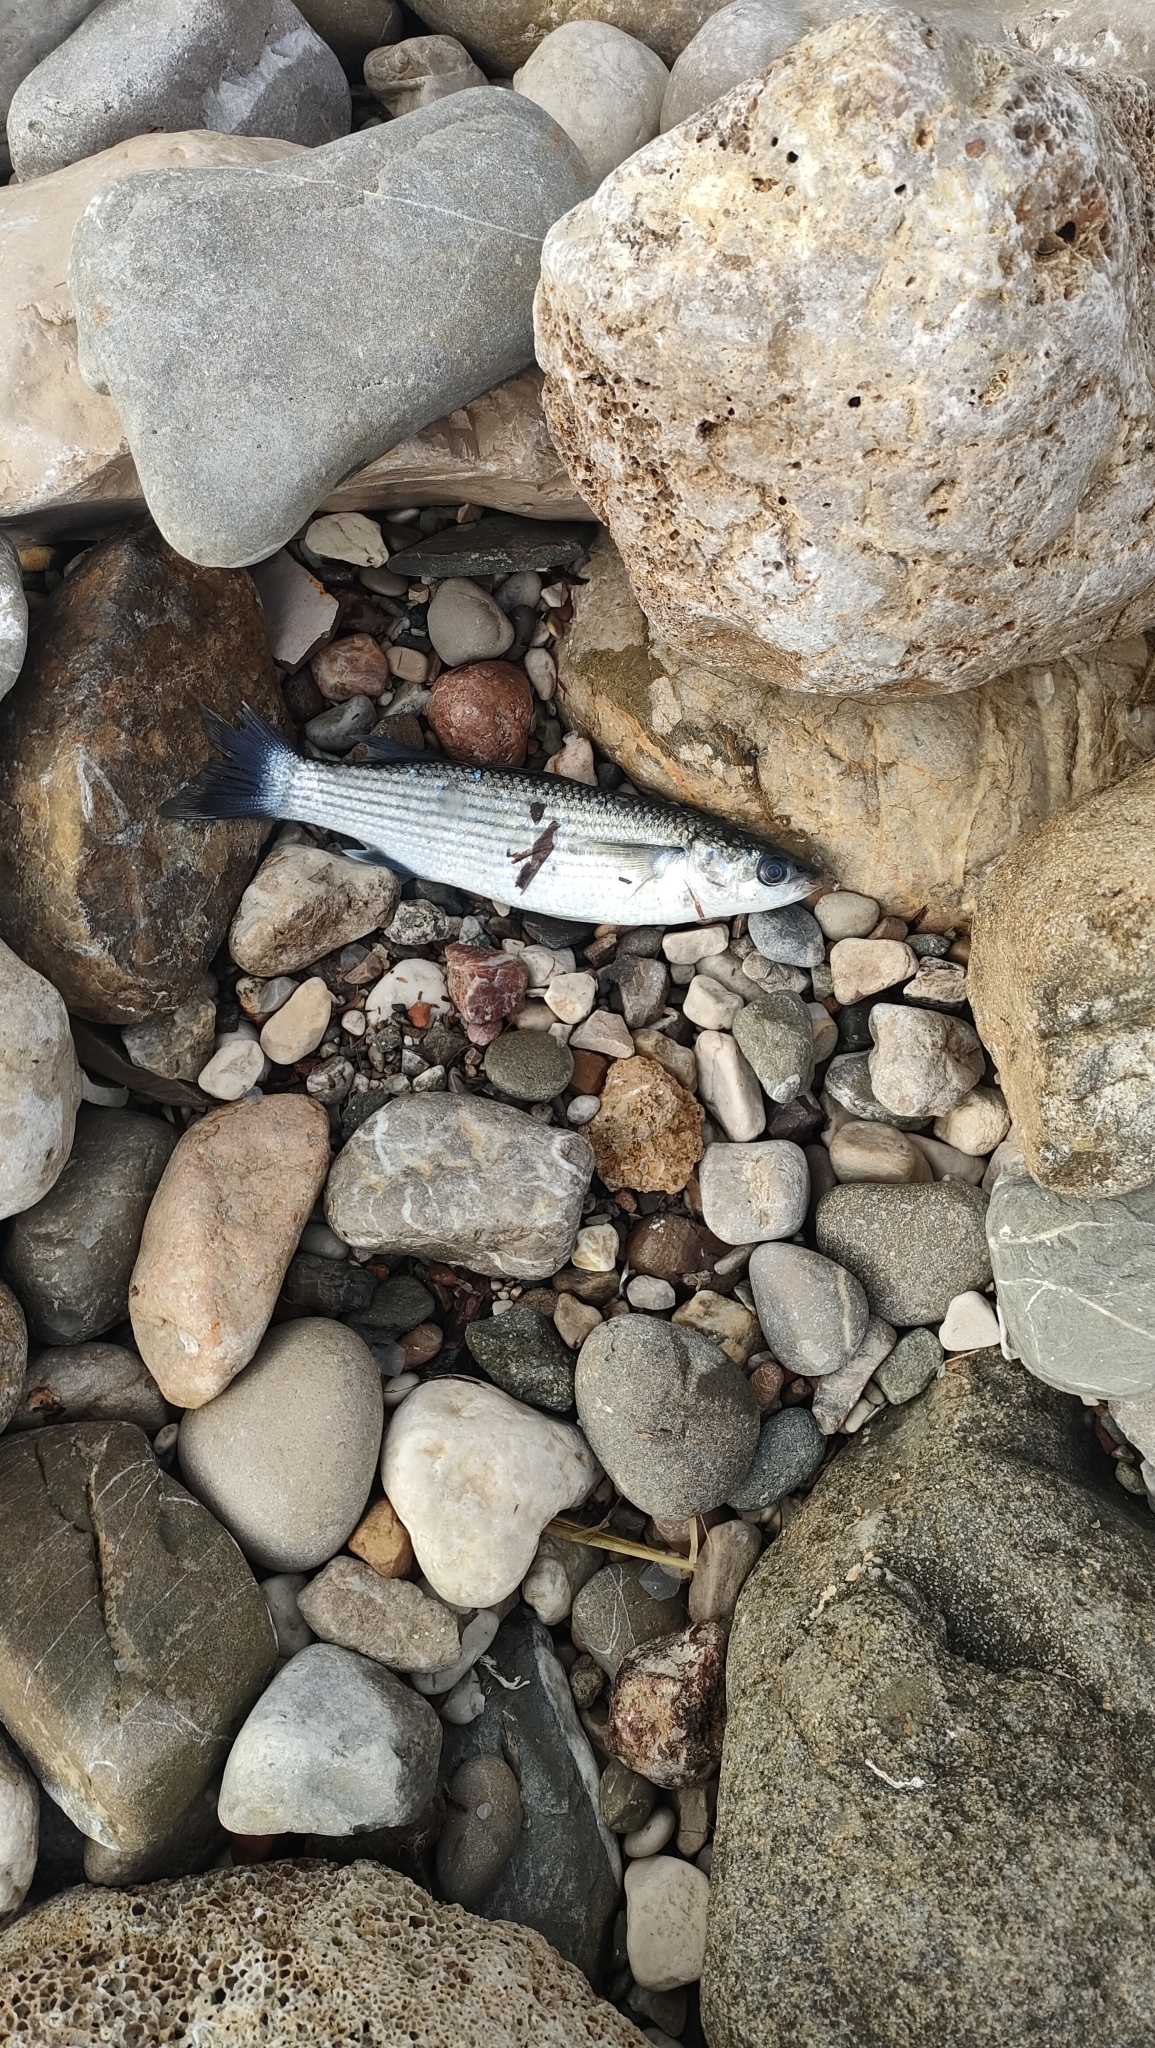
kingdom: Animalia
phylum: Chordata
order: Mugiliformes
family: Mugilidae
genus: Chelon
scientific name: Chelon labrosus
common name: Thick-lipped mullet
